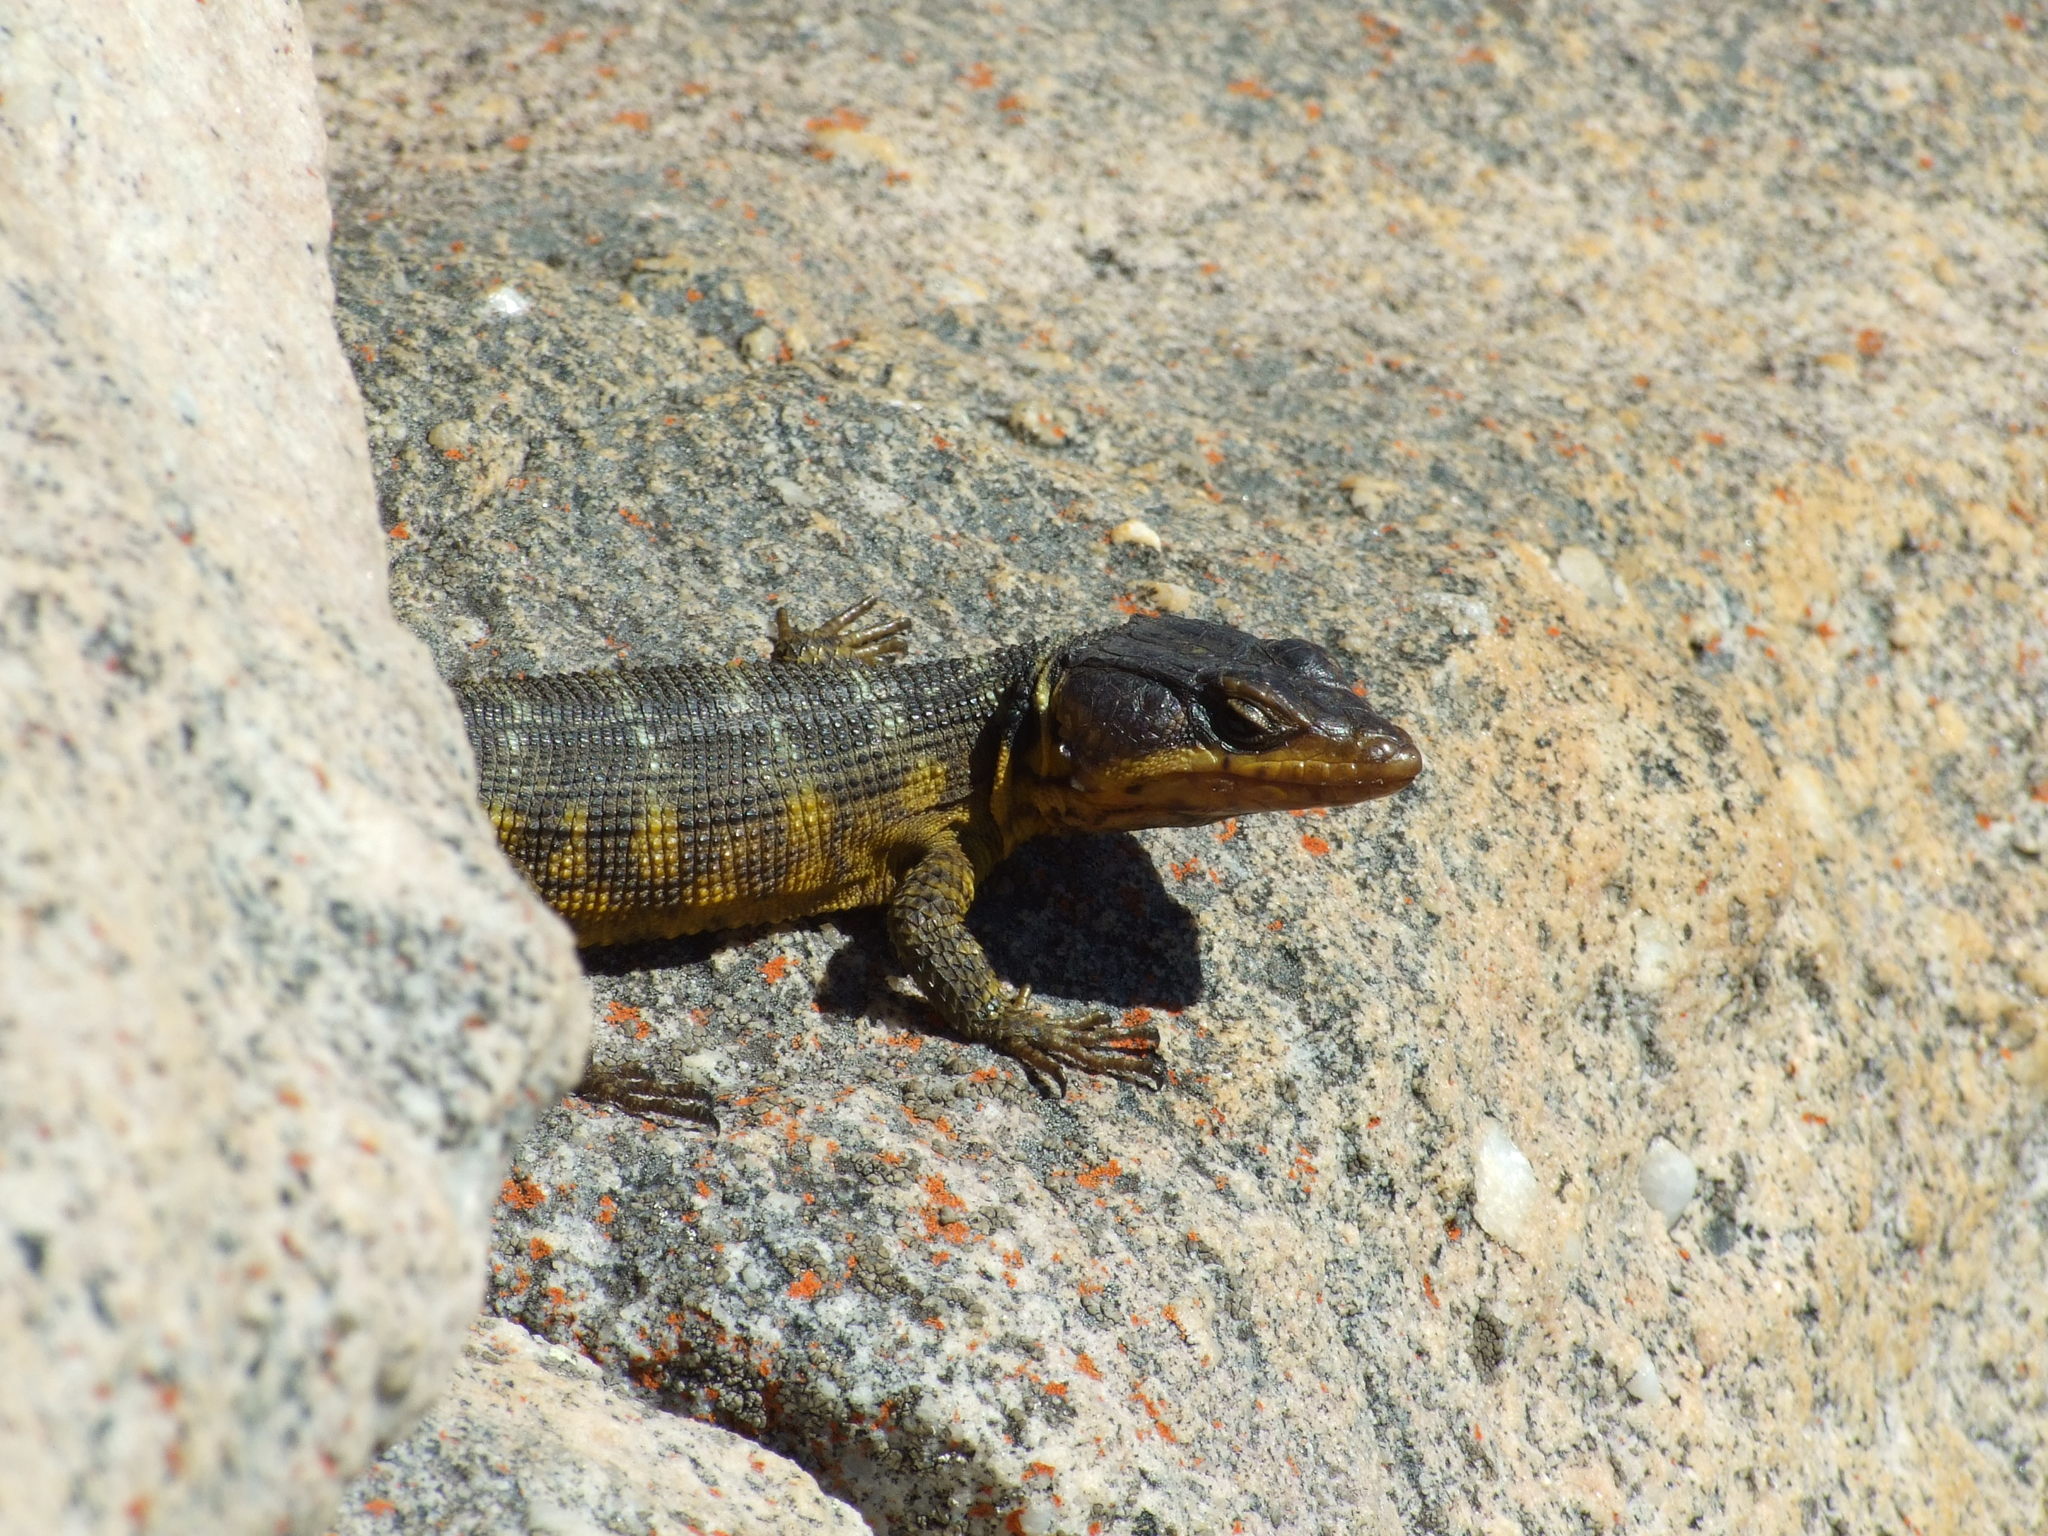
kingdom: Animalia
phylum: Chordata
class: Squamata
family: Cordylidae
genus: Pseudocordylus
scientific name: Pseudocordylus microlepidotus
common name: Cape crag lizard
